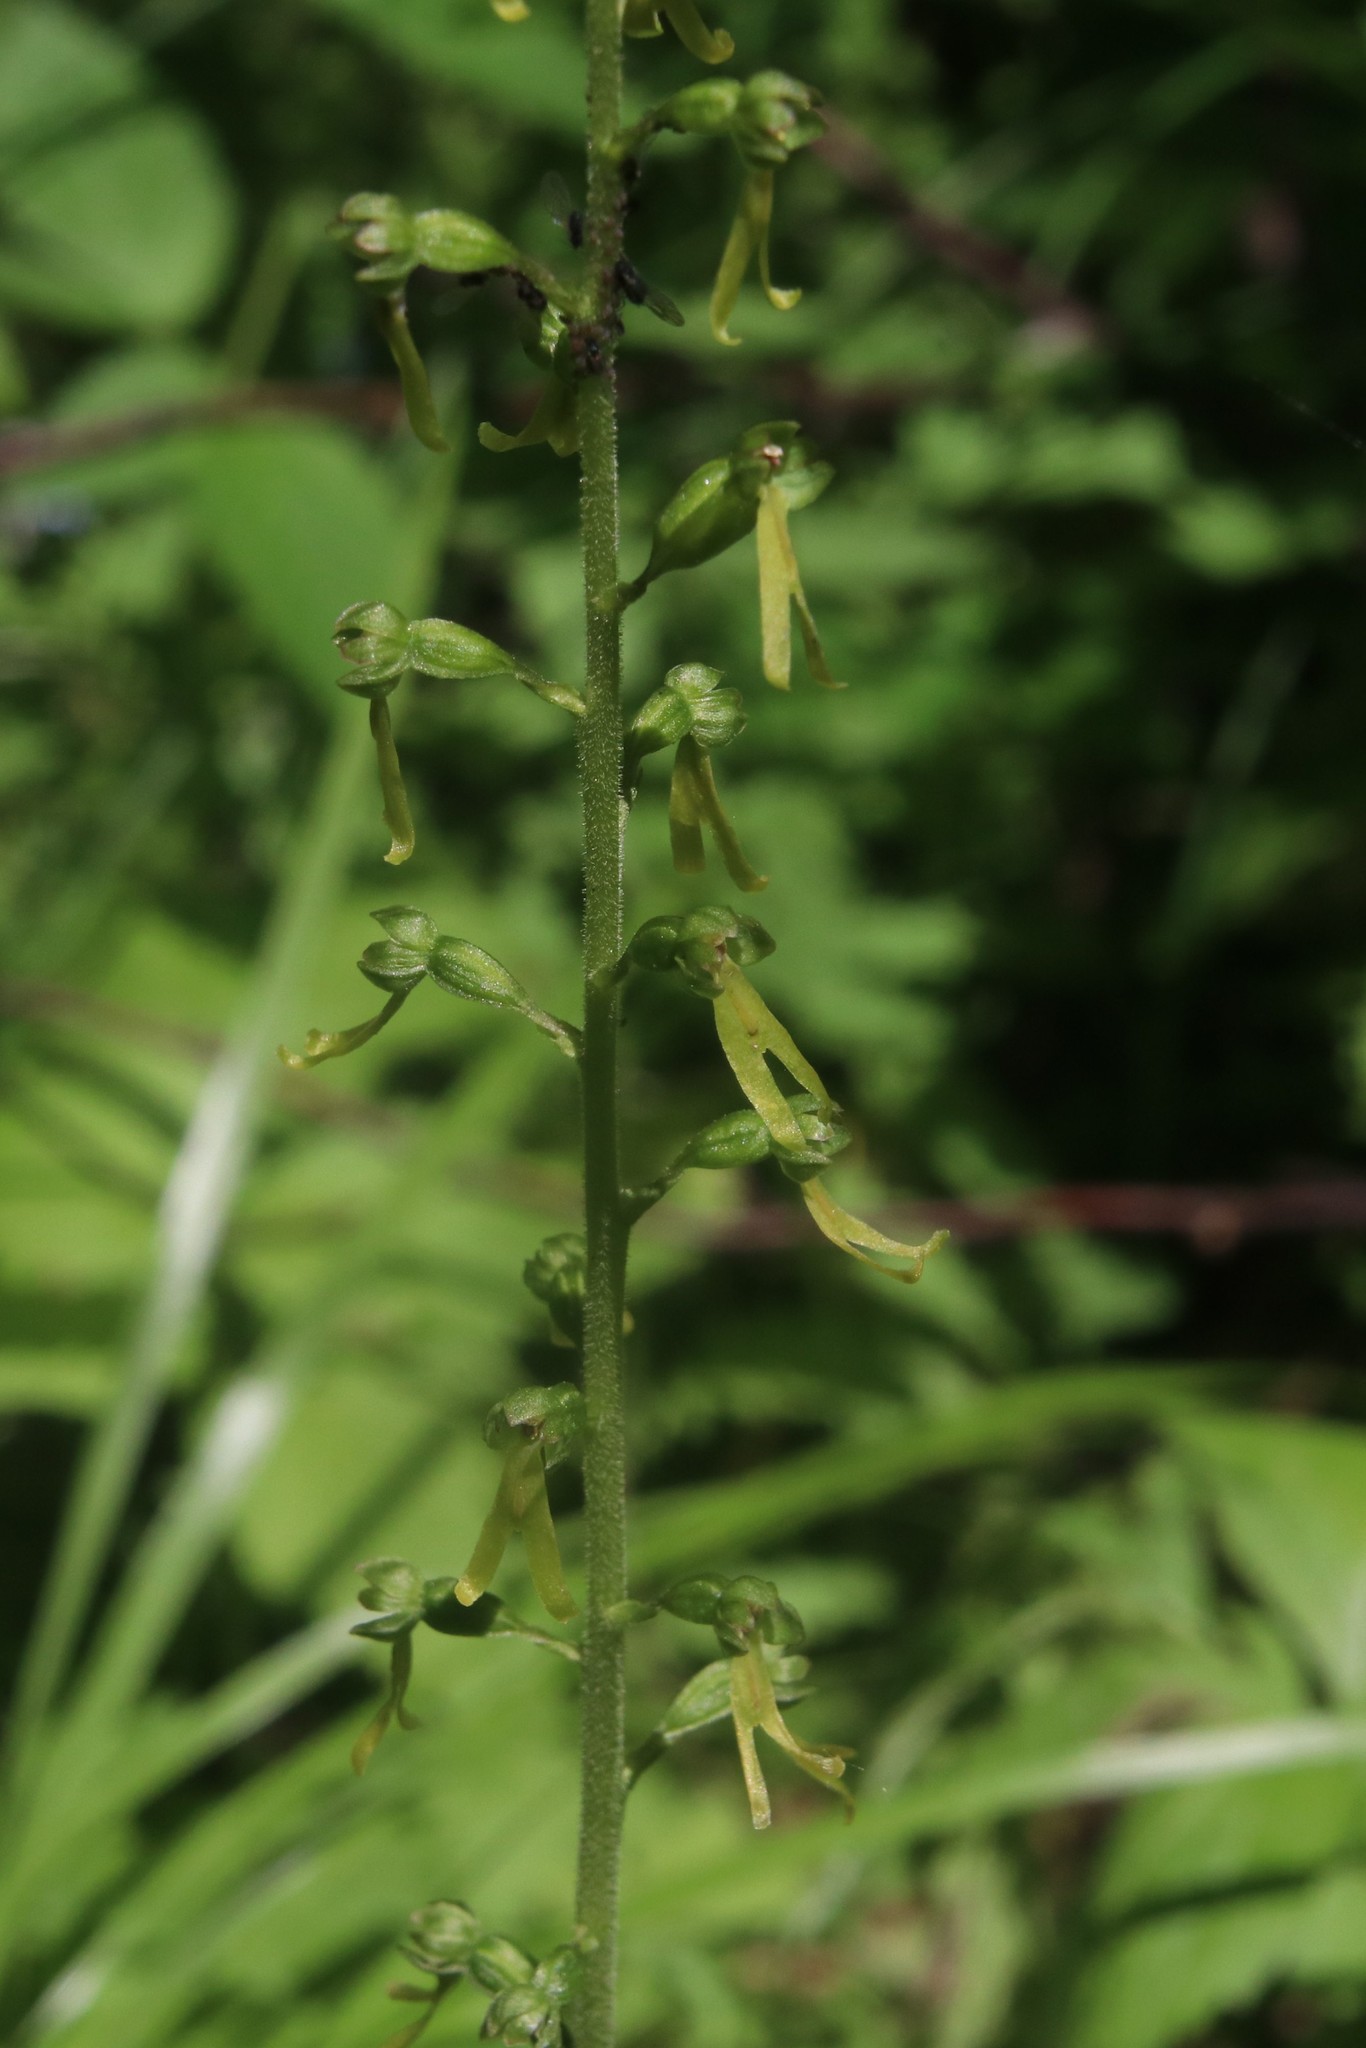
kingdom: Plantae
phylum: Tracheophyta
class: Liliopsida
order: Asparagales
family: Orchidaceae
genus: Neottia
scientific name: Neottia ovata
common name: Common twayblade
